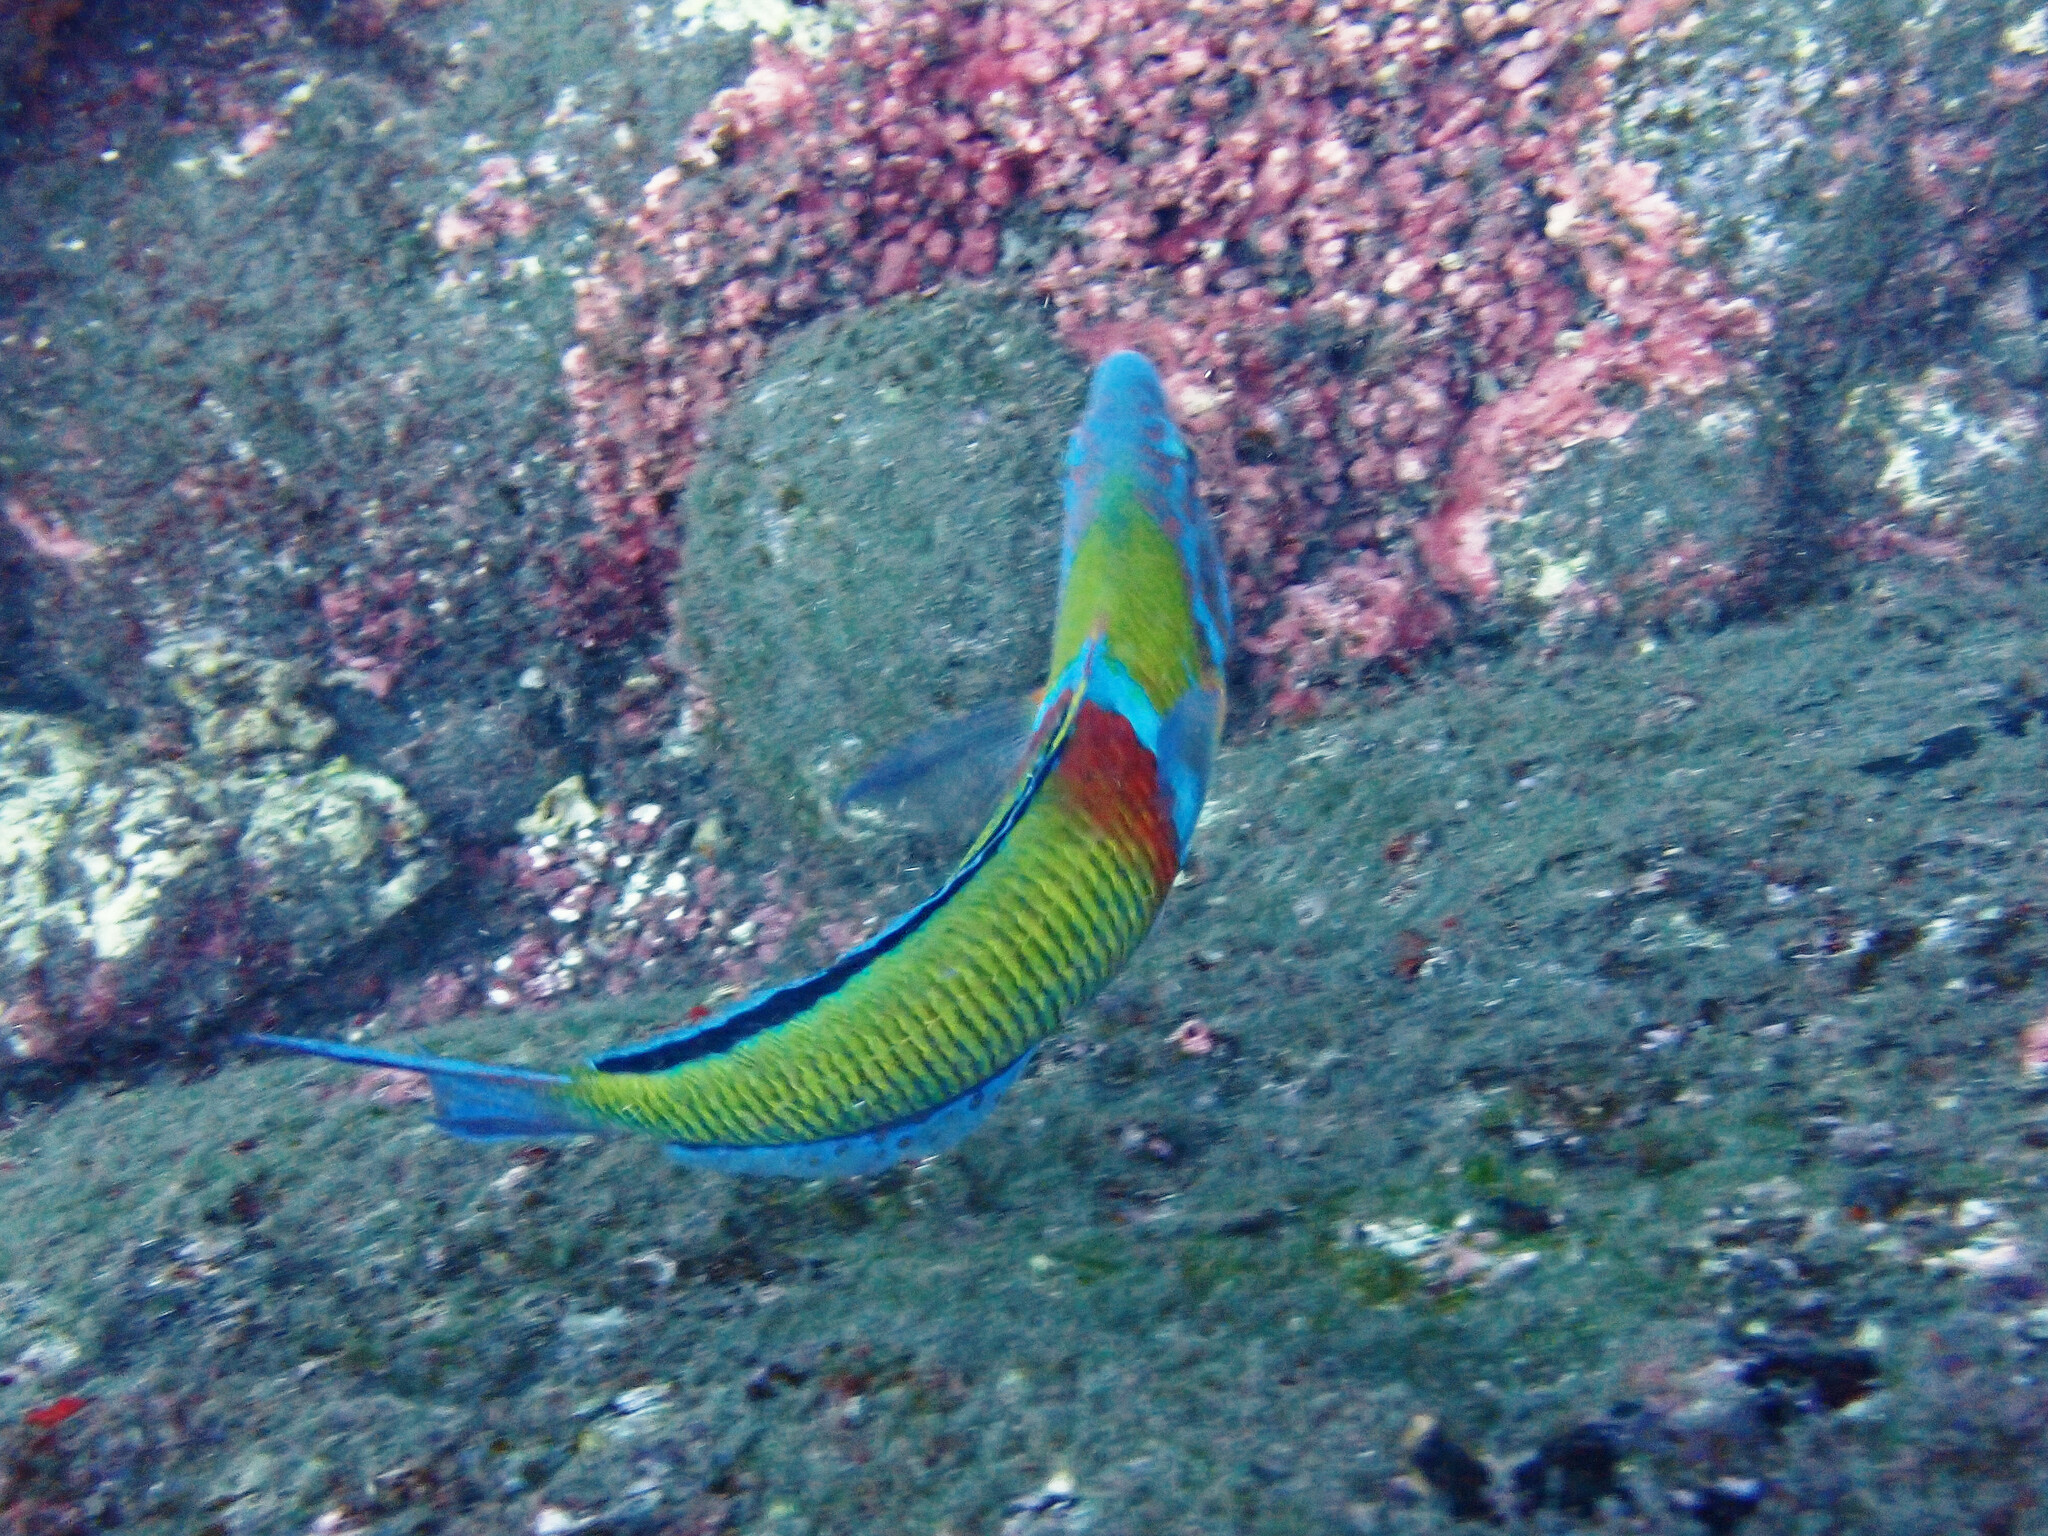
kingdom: Animalia
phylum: Chordata
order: Perciformes
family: Labridae
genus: Thalassoma
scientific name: Thalassoma pavo
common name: Ornate wrasse
